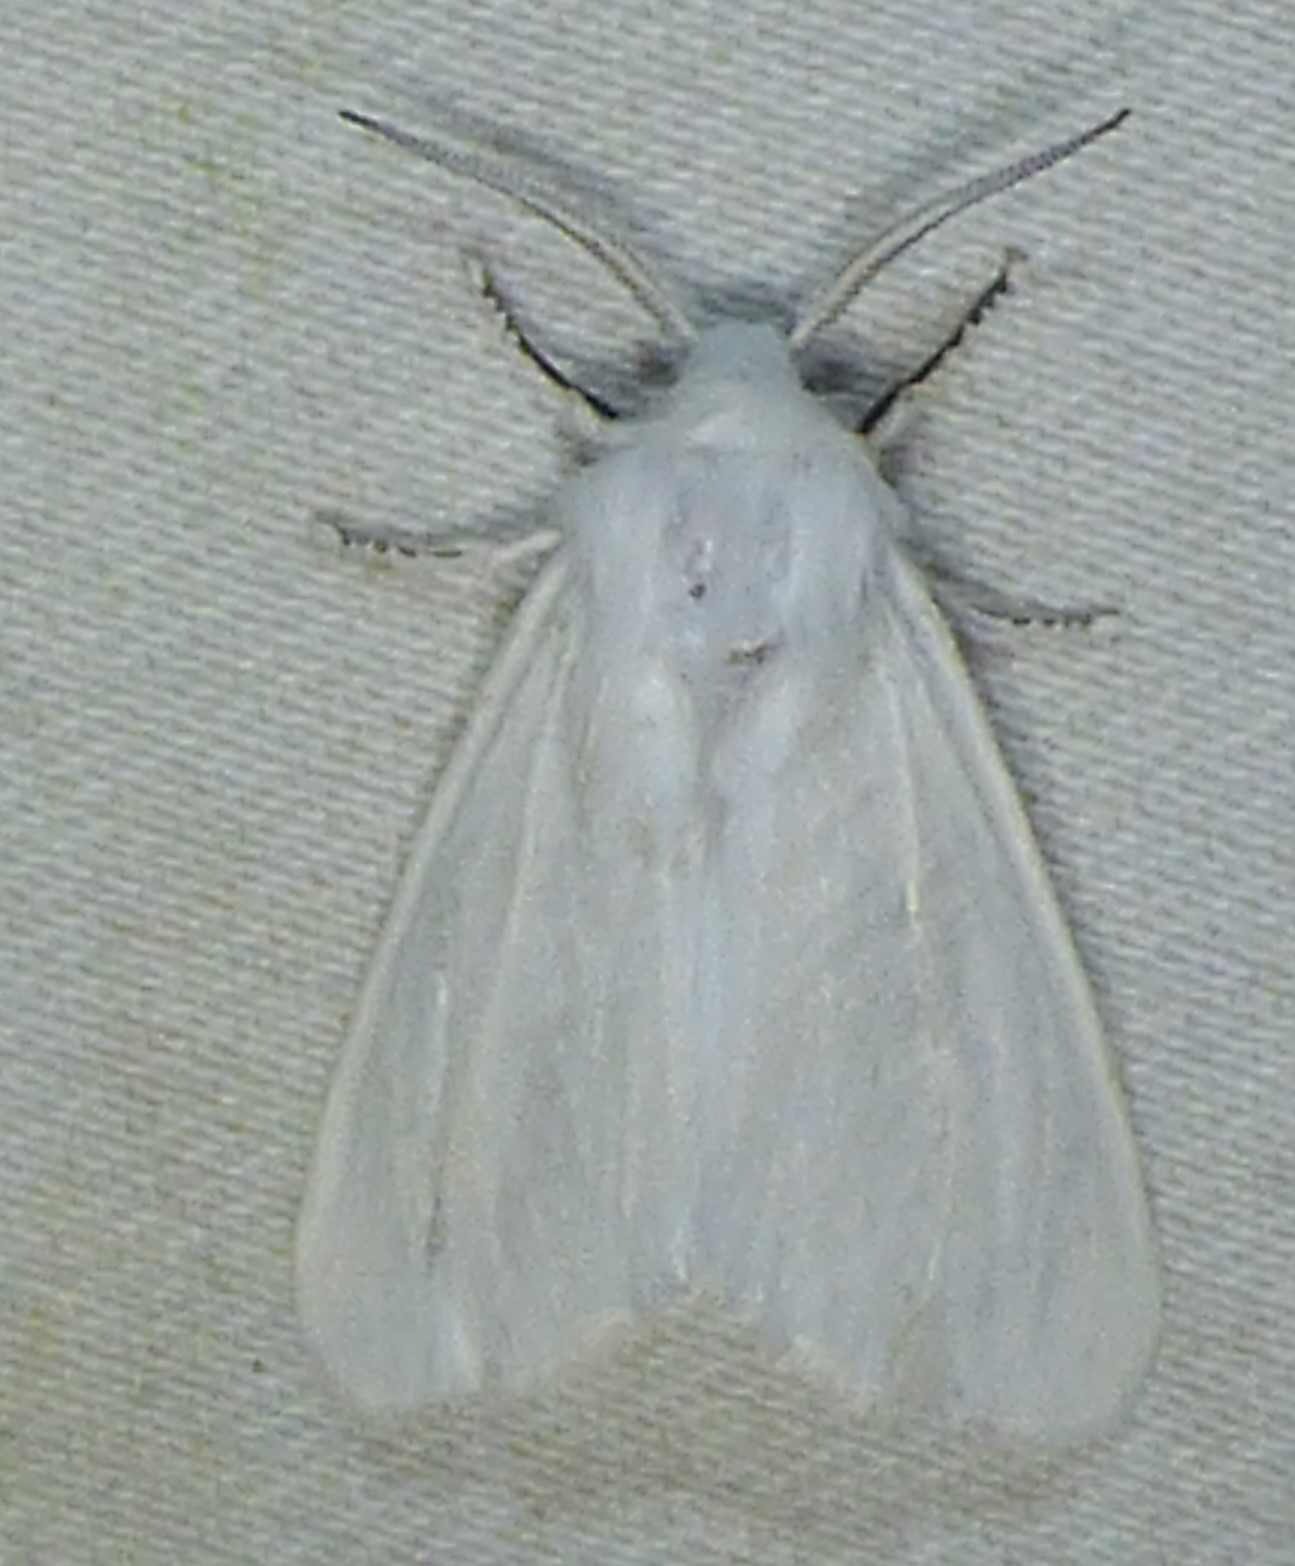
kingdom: Animalia
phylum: Arthropoda
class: Insecta
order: Lepidoptera
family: Erebidae
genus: Hyphantria
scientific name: Hyphantria cunea
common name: American white moth
